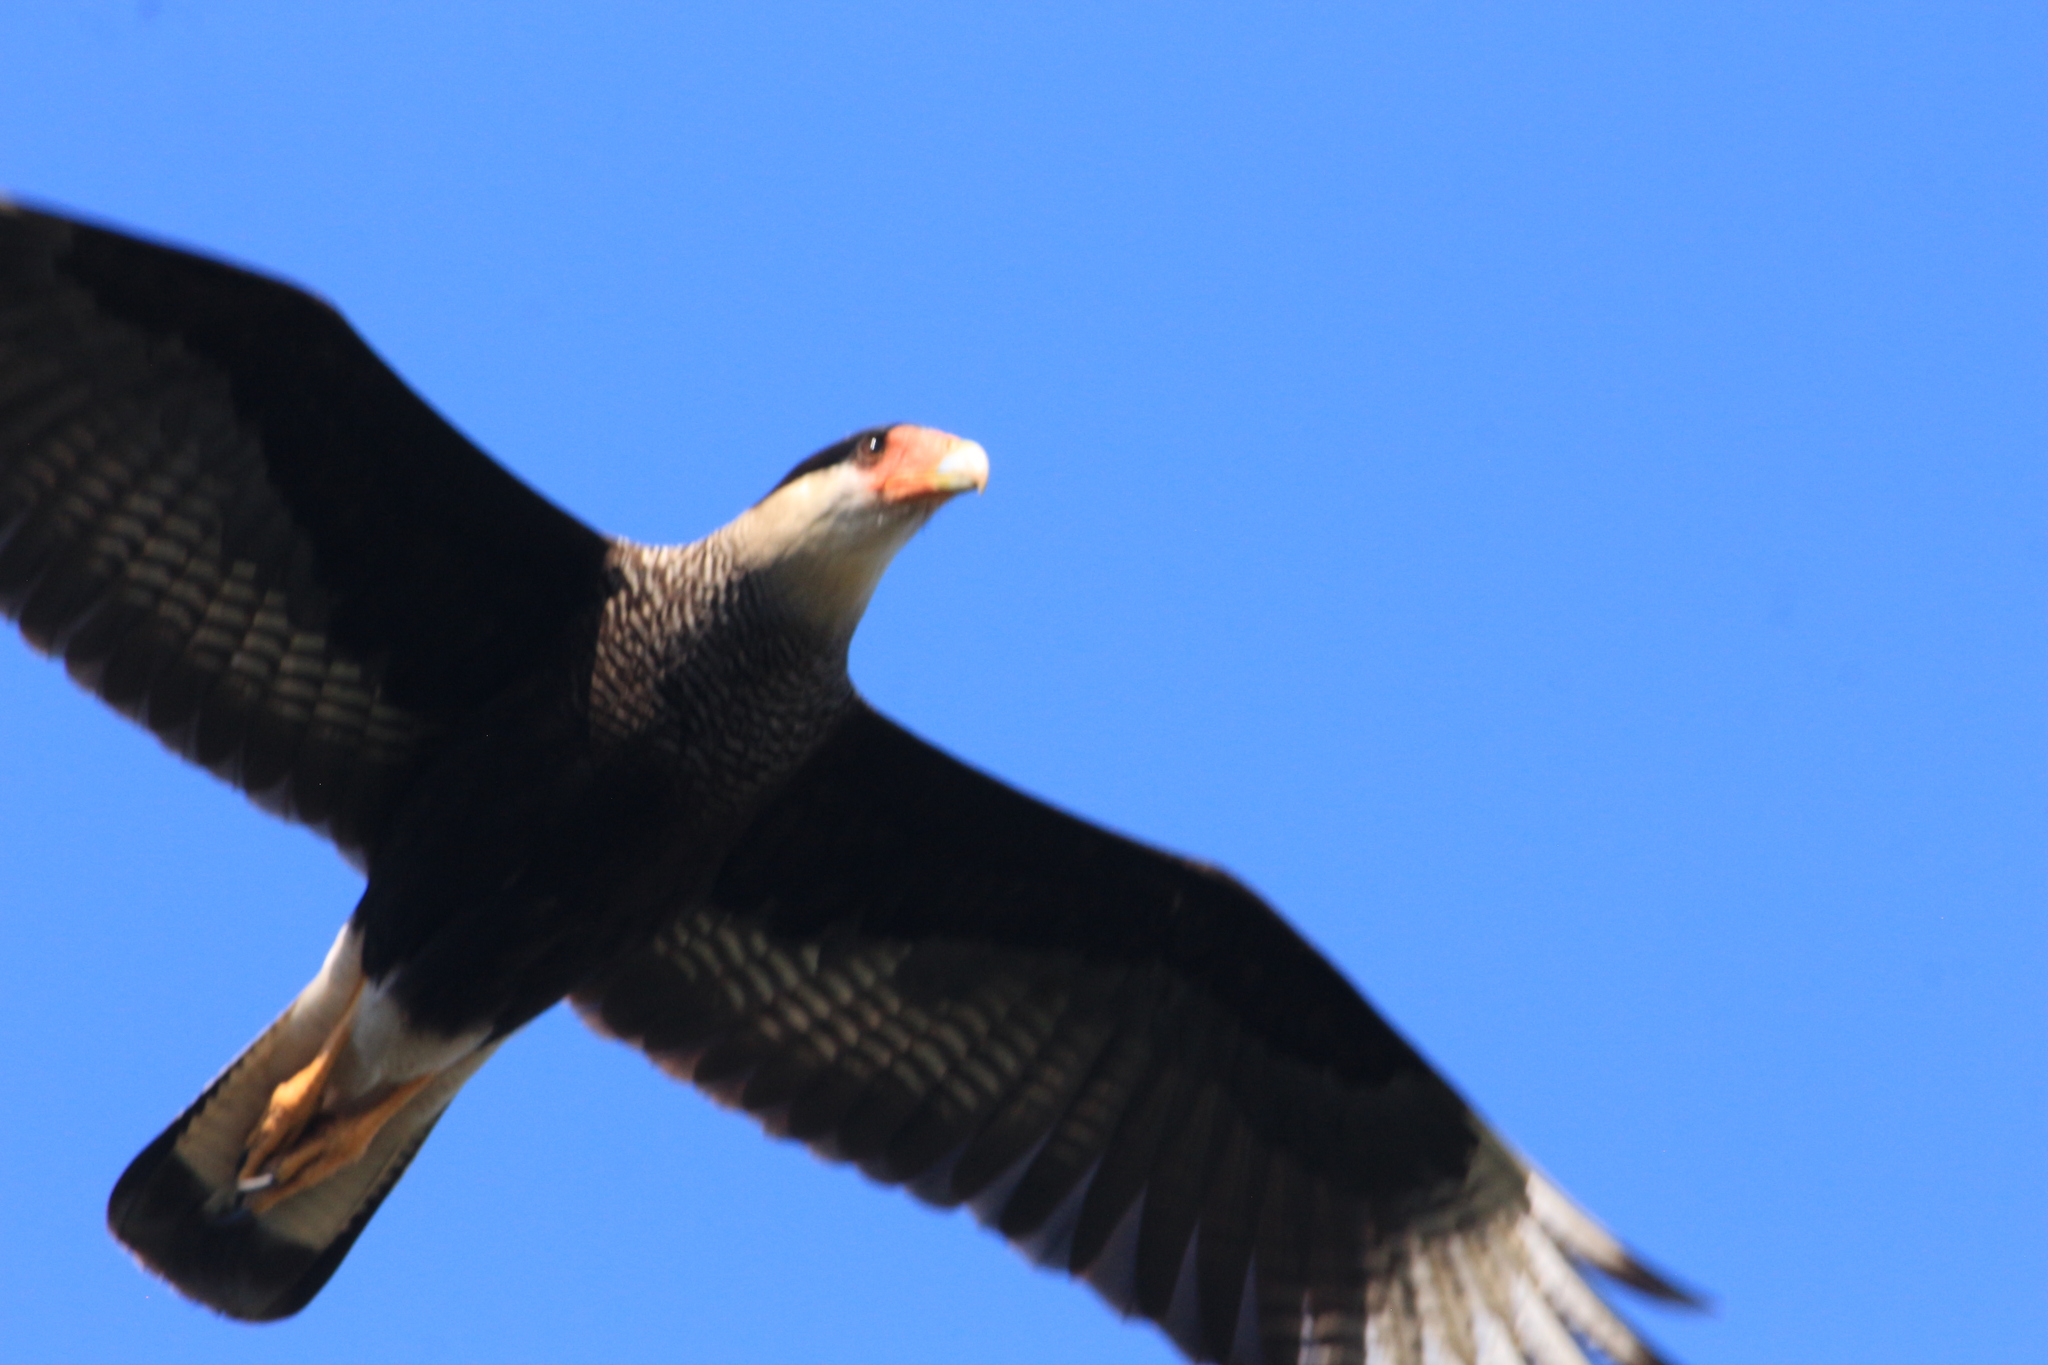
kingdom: Animalia
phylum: Chordata
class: Aves
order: Falconiformes
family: Falconidae
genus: Caracara
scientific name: Caracara plancus
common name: Southern caracara
